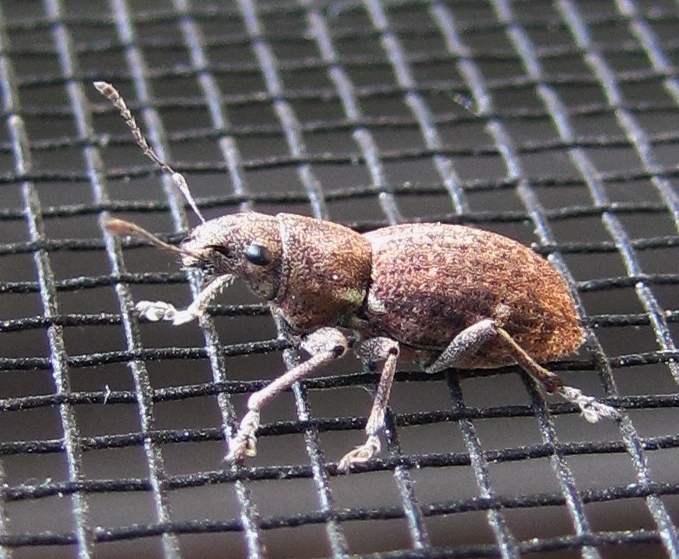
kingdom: Animalia
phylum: Arthropoda
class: Insecta
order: Coleoptera
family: Curculionidae
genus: Naupactus
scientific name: Naupactus cervinus
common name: Fuller rose beetle
